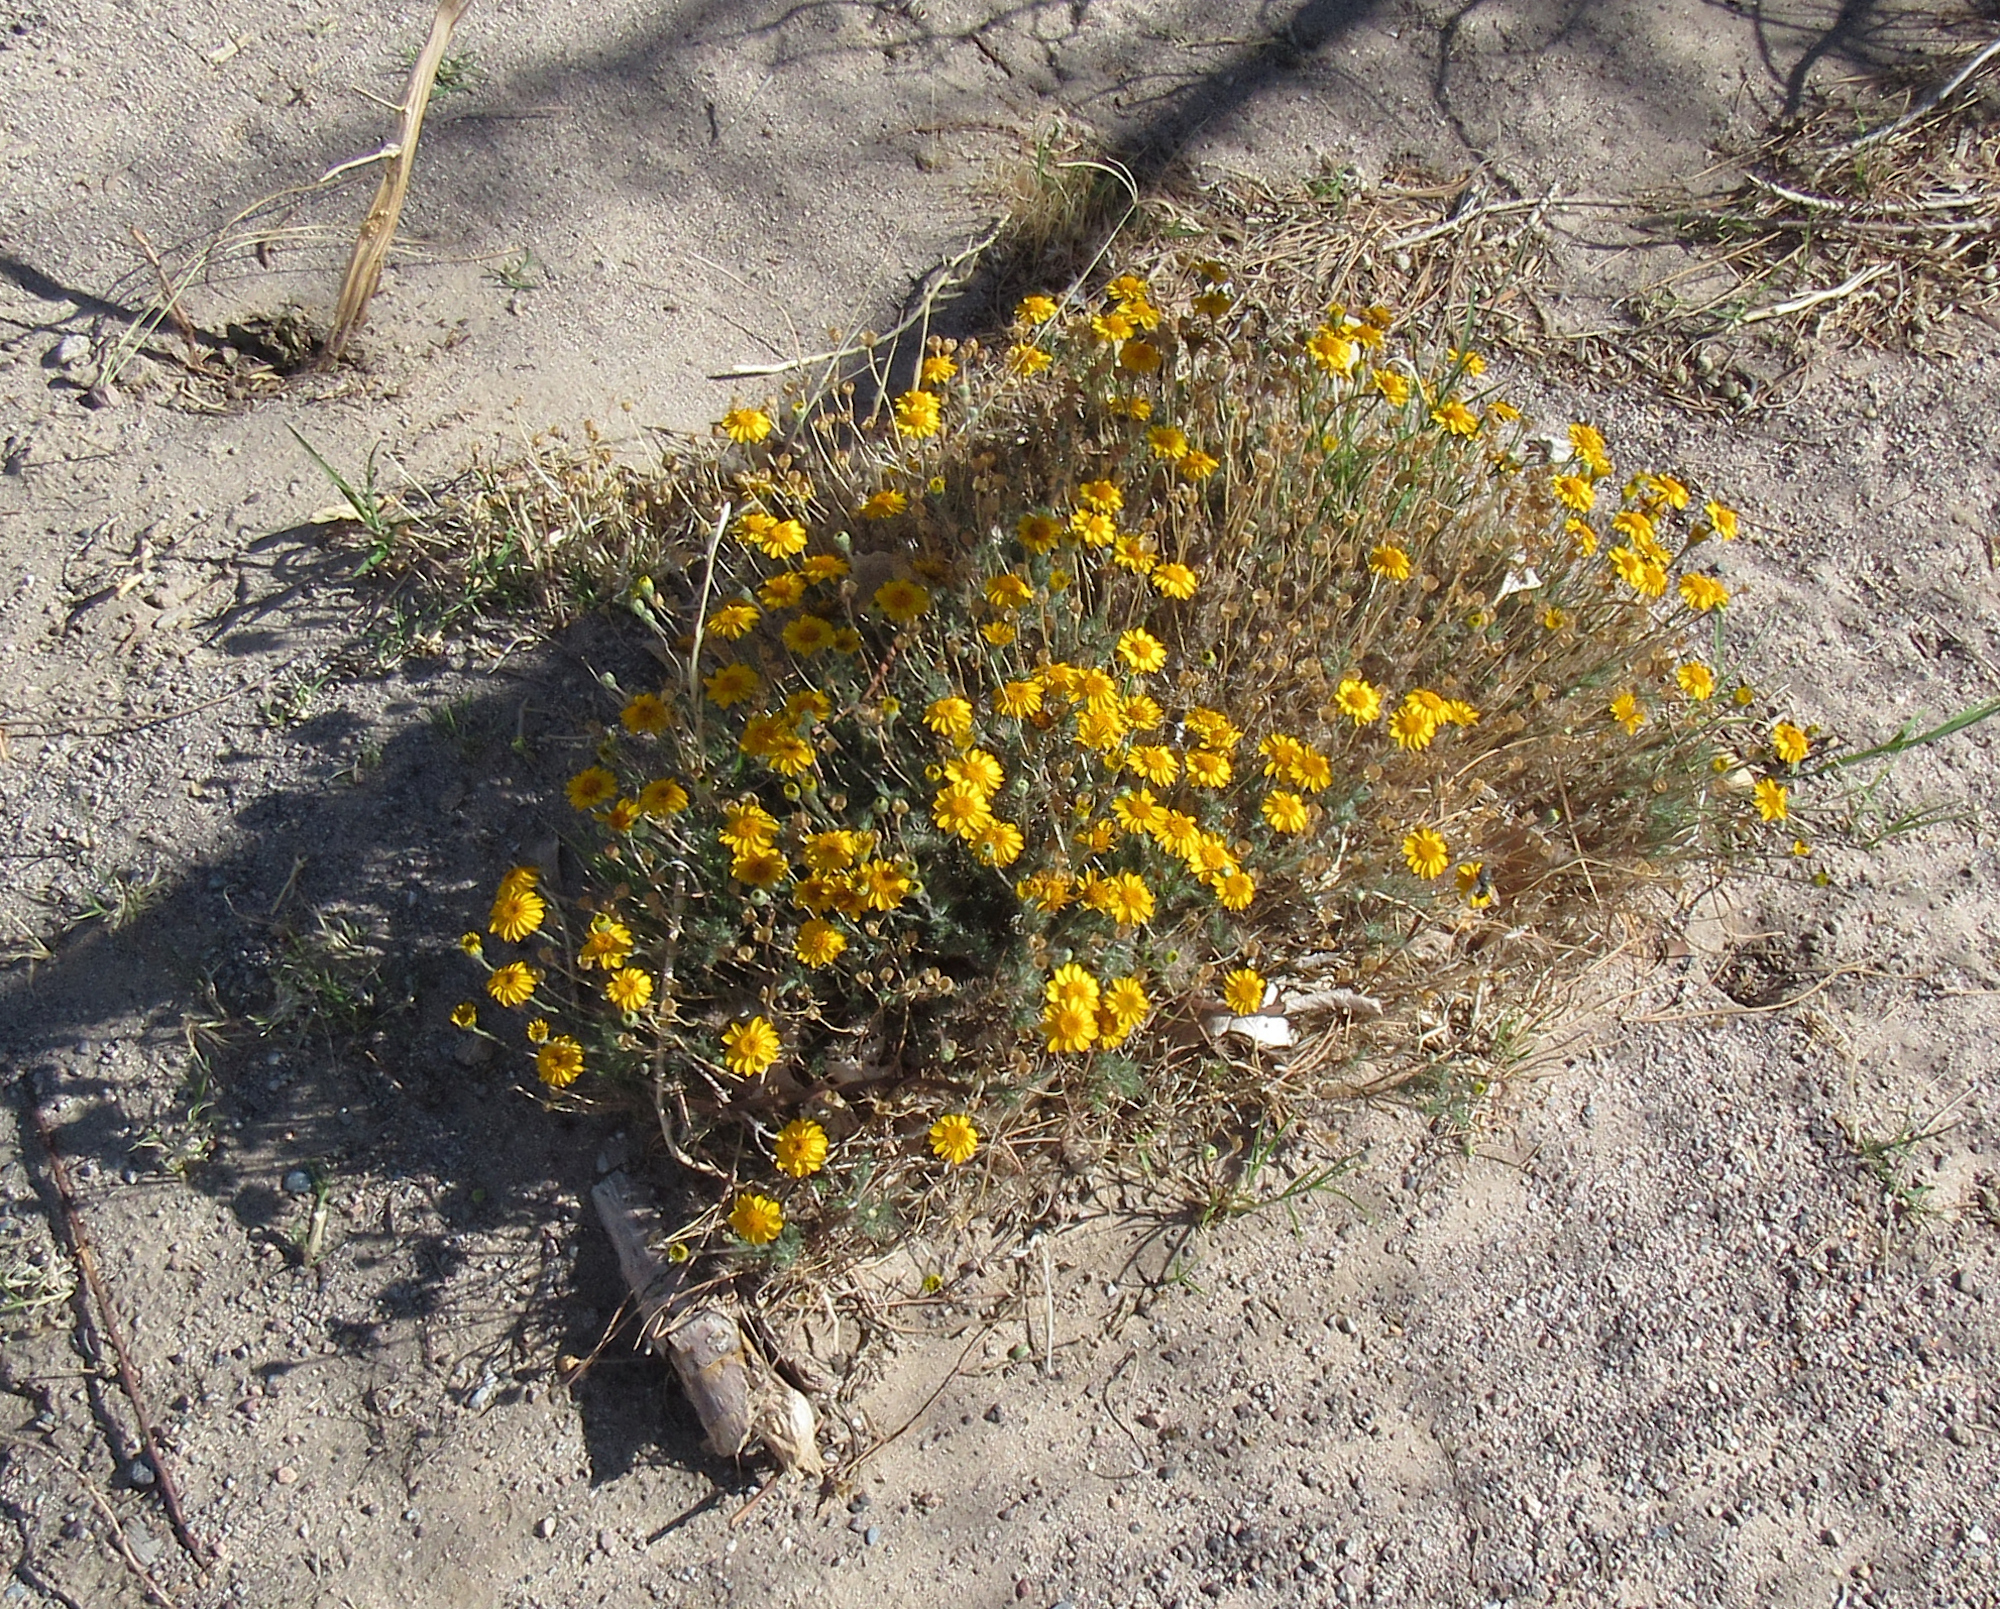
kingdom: Plantae
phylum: Tracheophyta
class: Magnoliopsida
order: Asterales
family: Asteraceae
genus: Thymophylla
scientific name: Thymophylla pentachaeta
